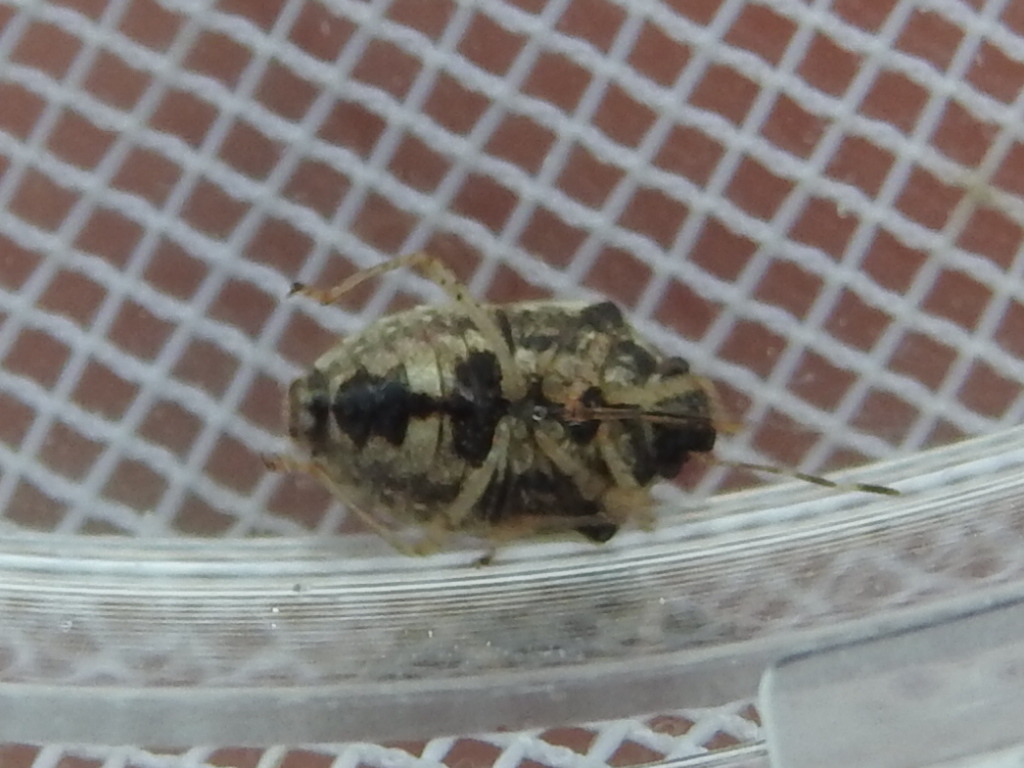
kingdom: Animalia
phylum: Arthropoda
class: Insecta
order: Hemiptera
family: Pentatomidae
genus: Mormidea
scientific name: Mormidea cubrosa
